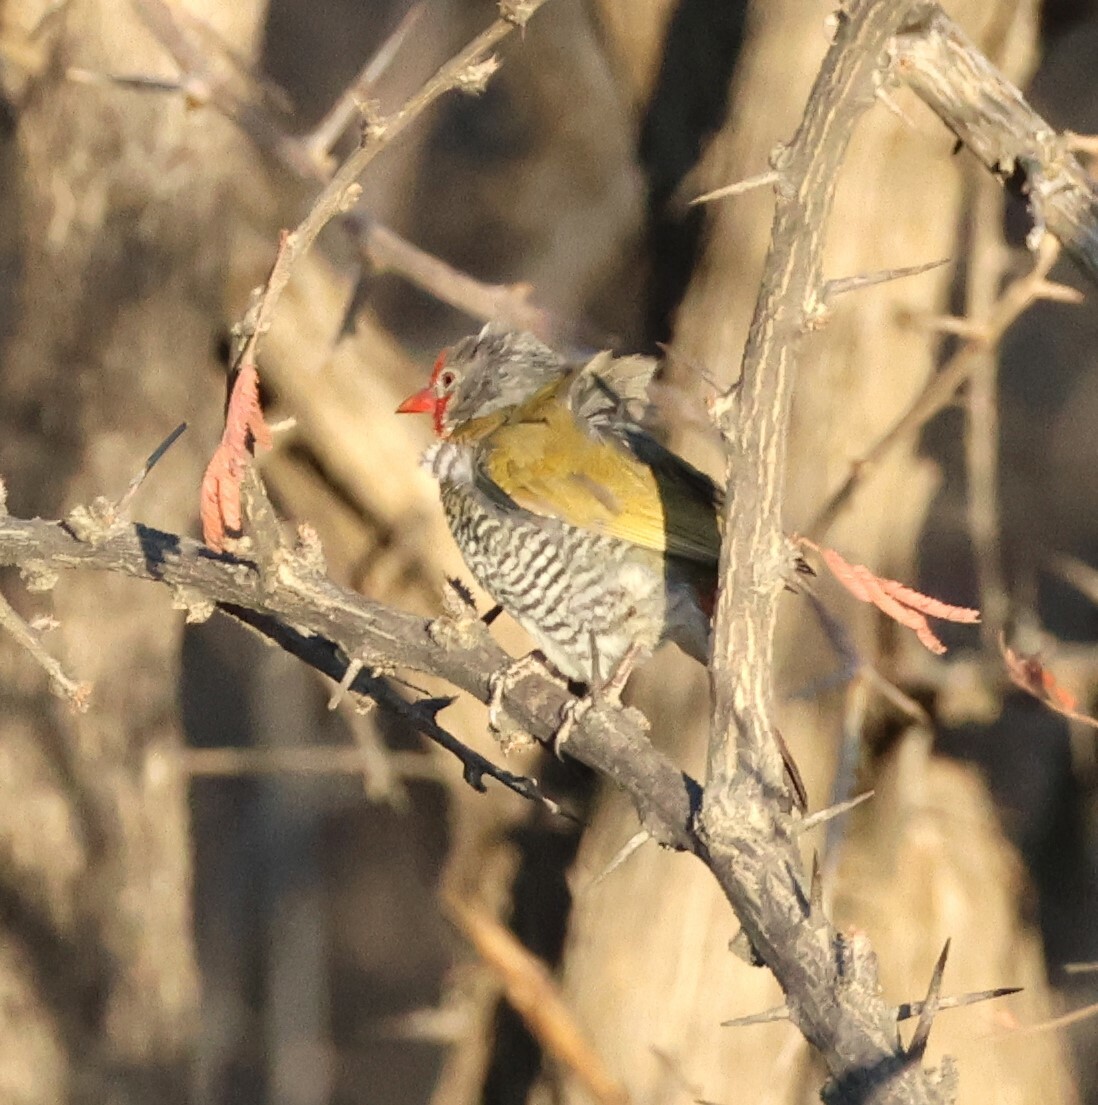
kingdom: Animalia
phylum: Chordata
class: Aves
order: Passeriformes
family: Estrildidae
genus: Pytilia
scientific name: Pytilia melba
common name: Green-winged pytilia
